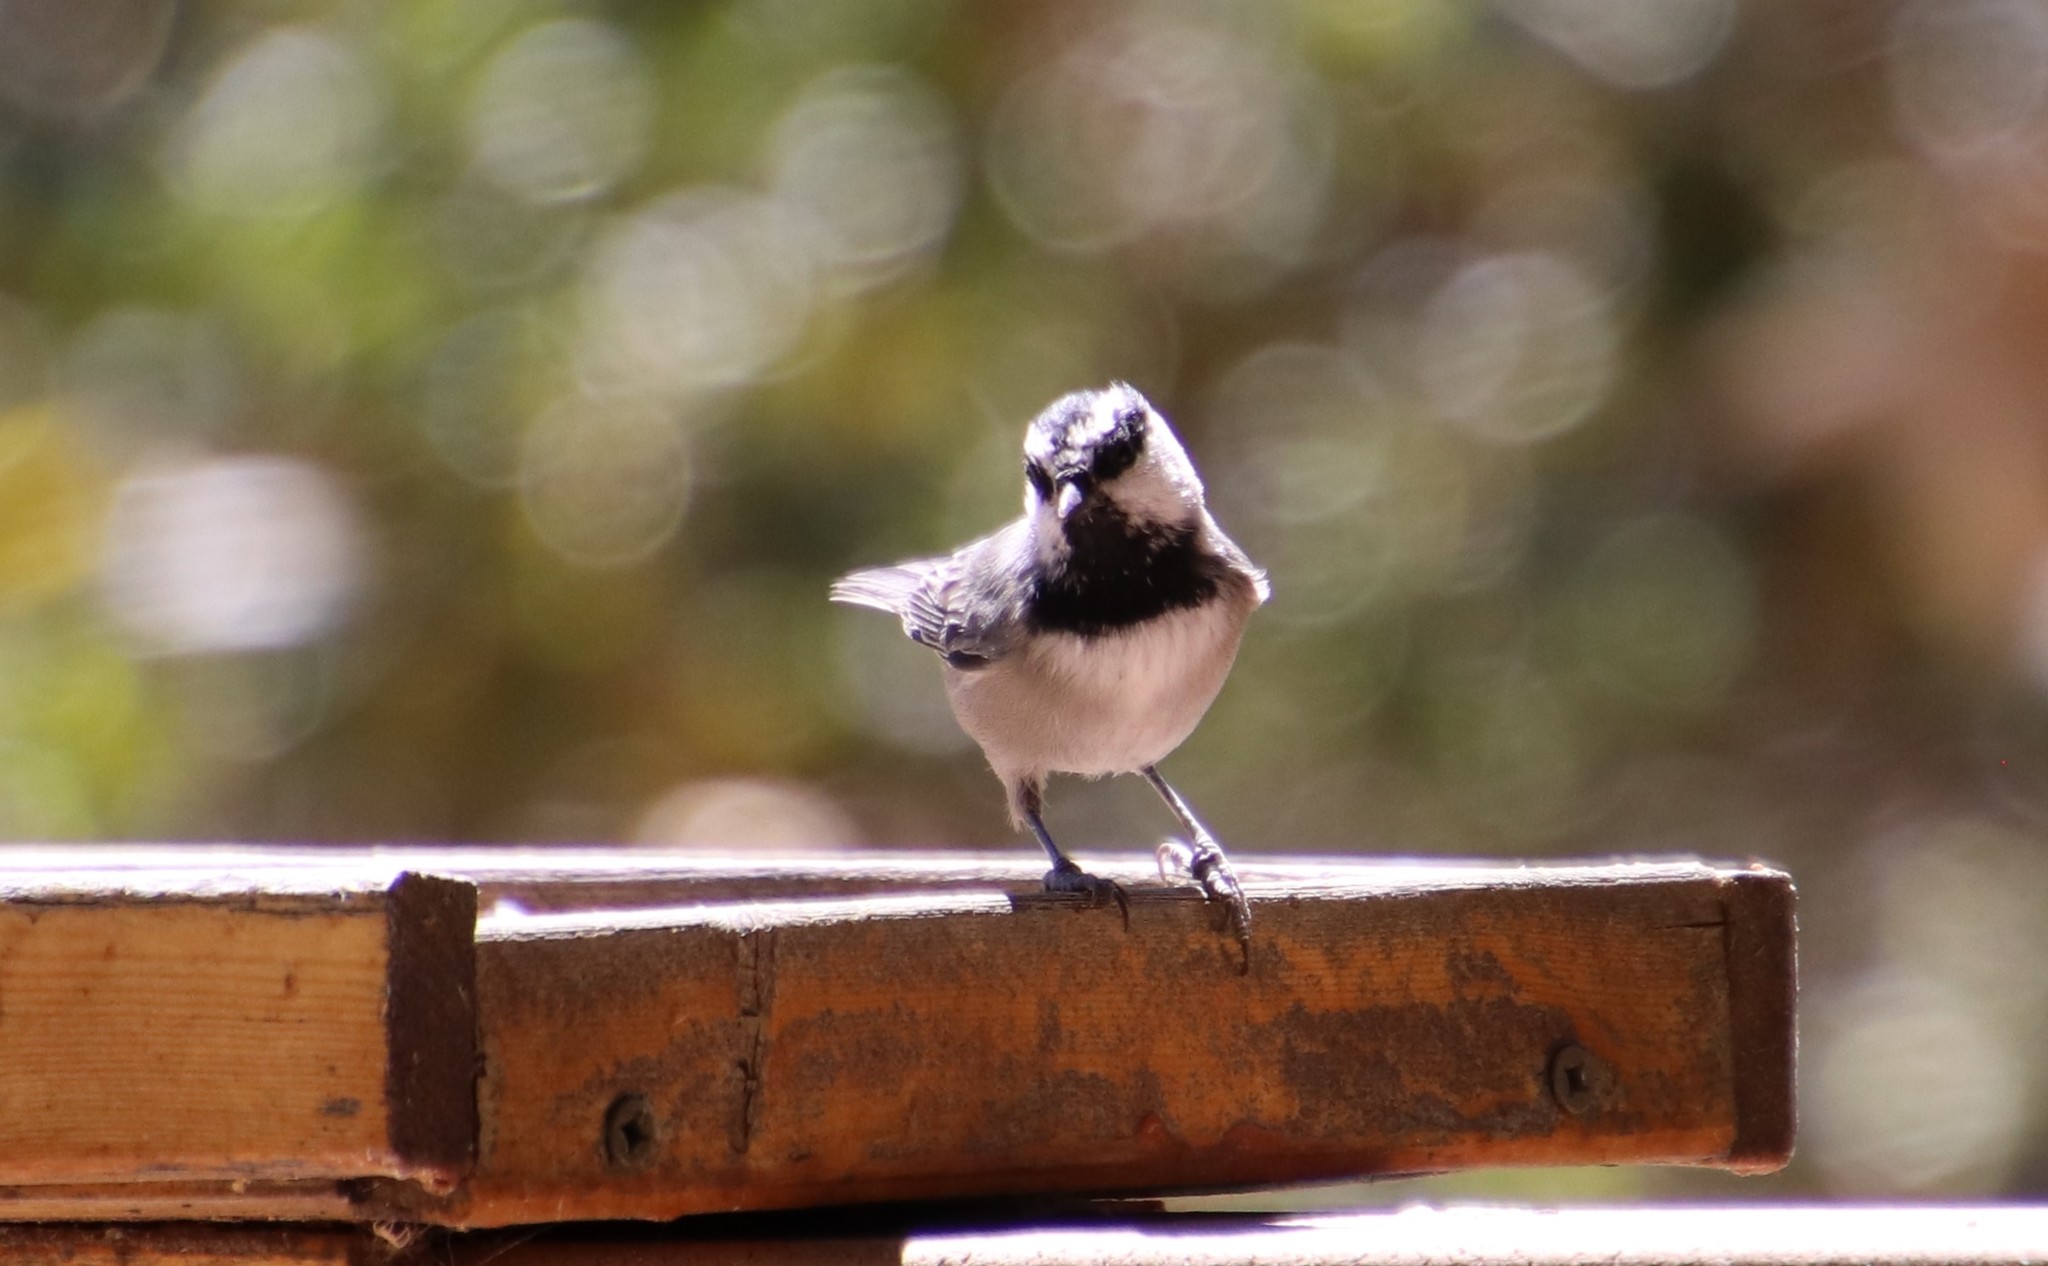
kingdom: Animalia
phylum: Chordata
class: Aves
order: Passeriformes
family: Paridae
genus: Poecile
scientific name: Poecile gambeli
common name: Mountain chickadee
